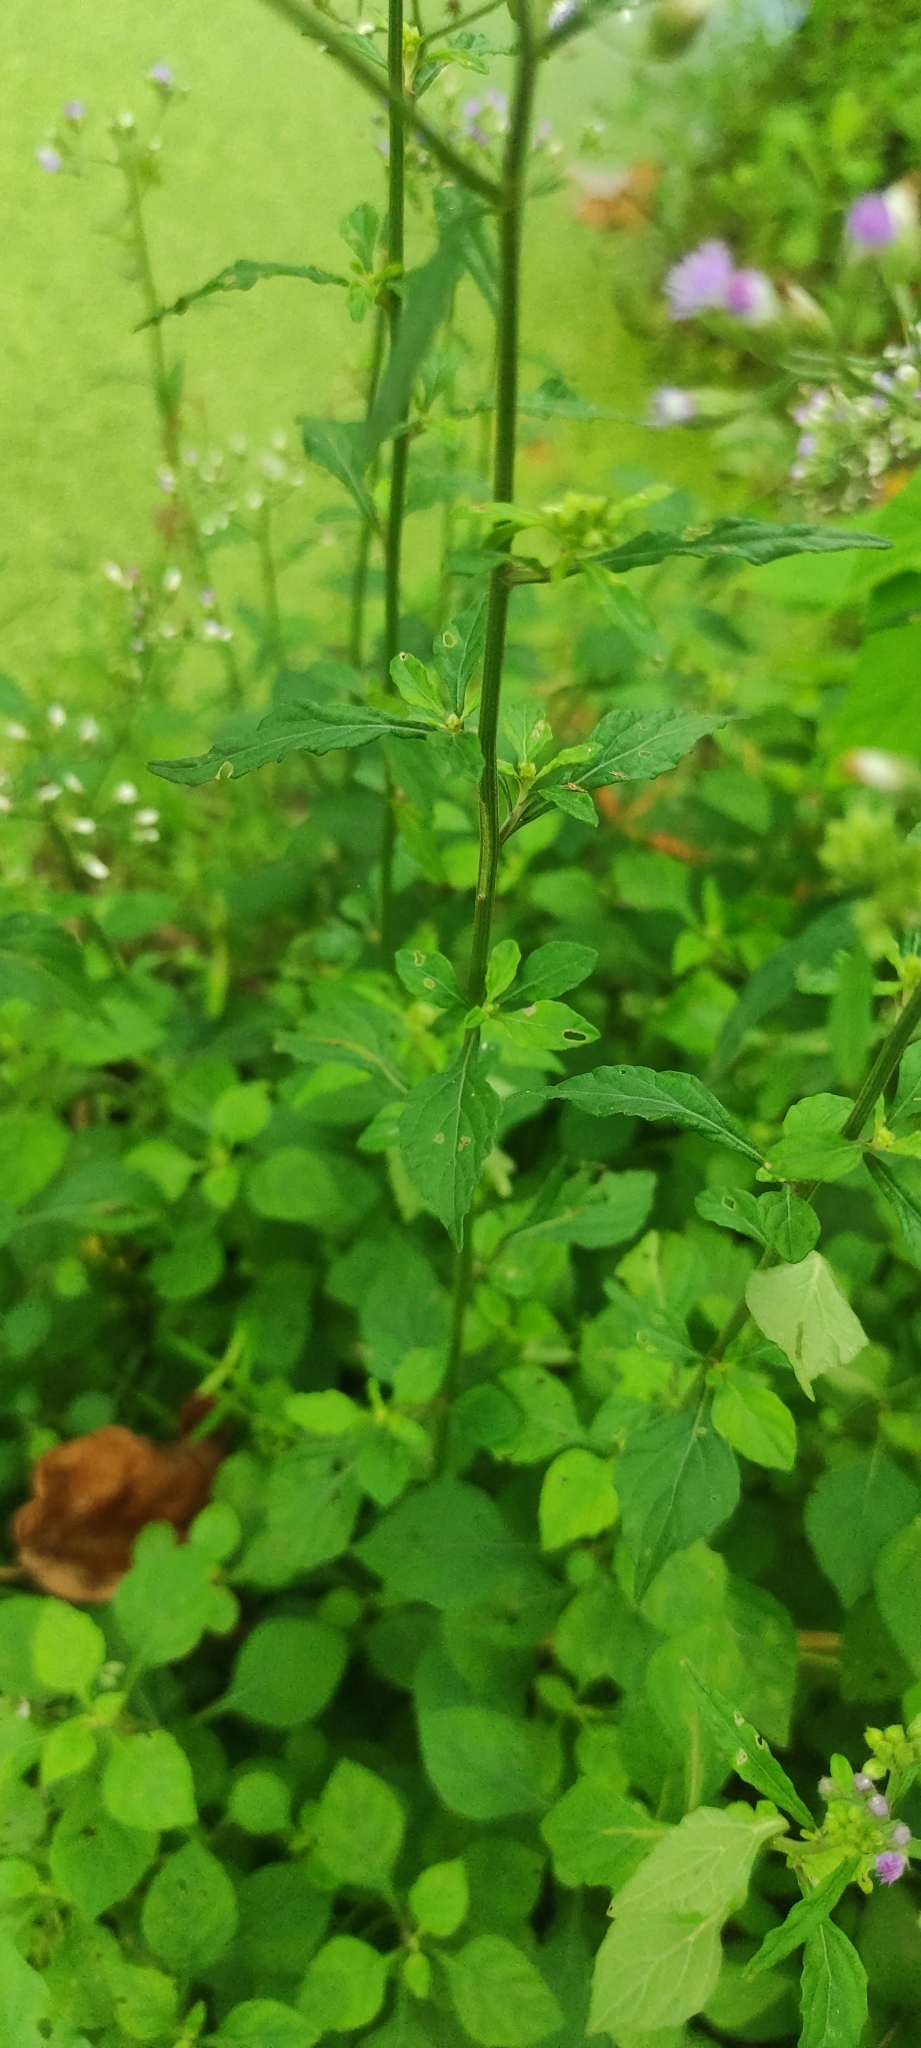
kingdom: Plantae
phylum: Tracheophyta
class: Magnoliopsida
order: Asterales
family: Asteraceae
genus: Cyanthillium
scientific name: Cyanthillium cinereum
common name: Little ironweed
